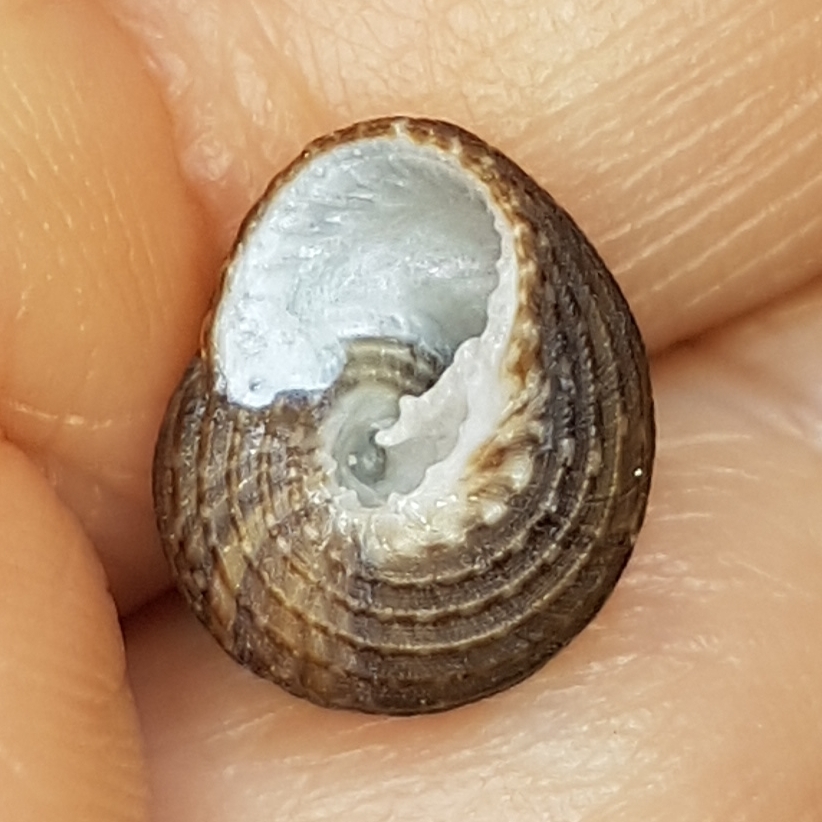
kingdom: Animalia
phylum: Mollusca
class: Gastropoda
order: Trochida
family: Trochidae
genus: Clanculus
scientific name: Clanculus cruciatus
